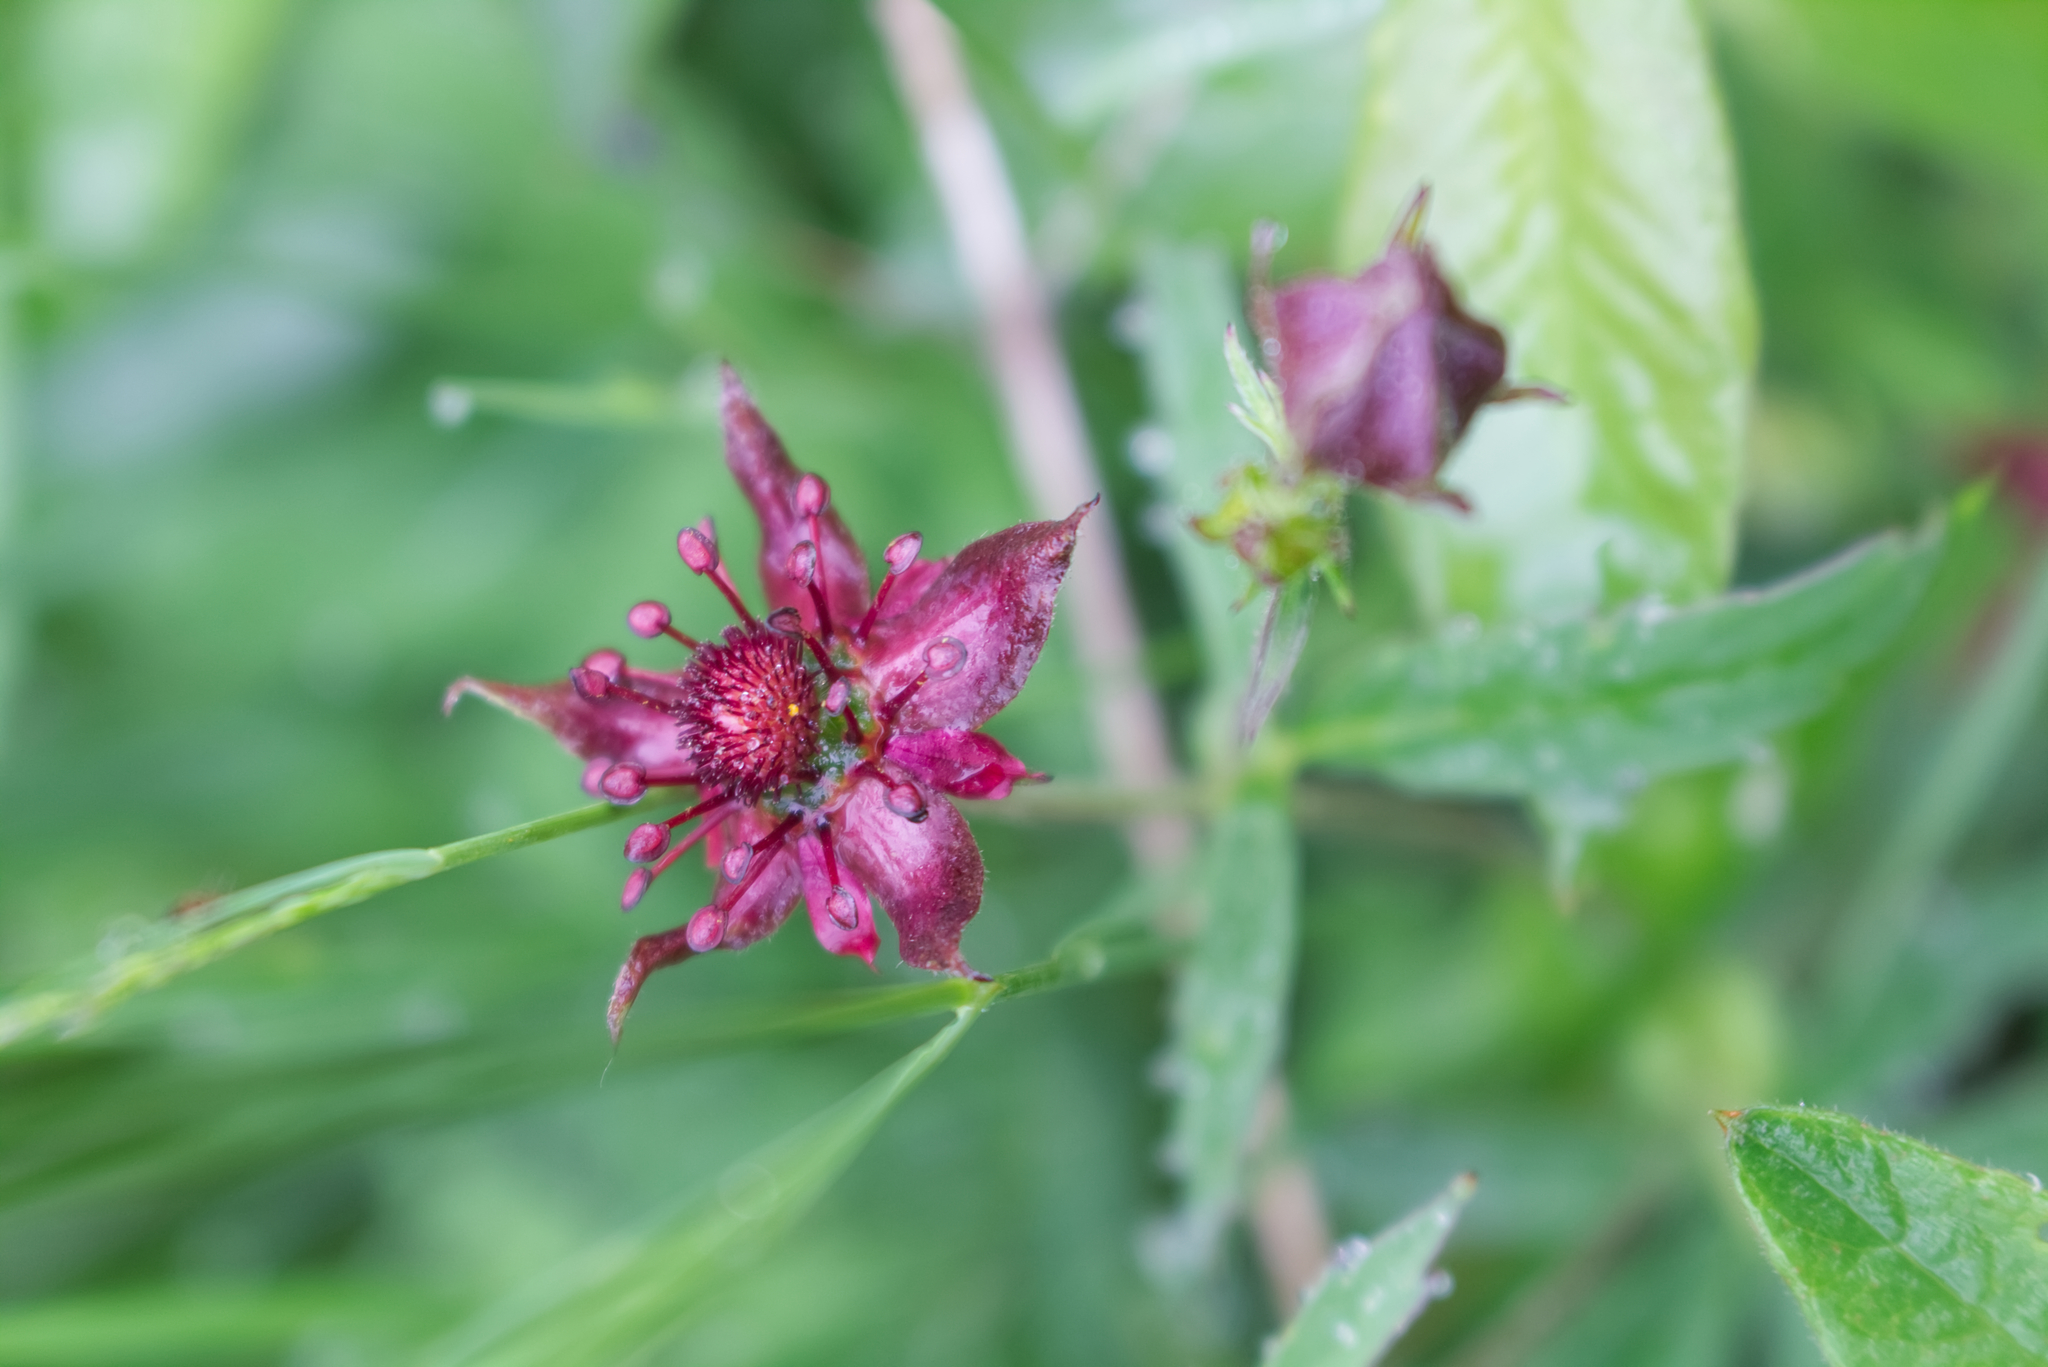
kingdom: Plantae
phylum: Tracheophyta
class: Magnoliopsida
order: Rosales
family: Rosaceae
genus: Comarum
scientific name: Comarum palustre
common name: Marsh cinquefoil
